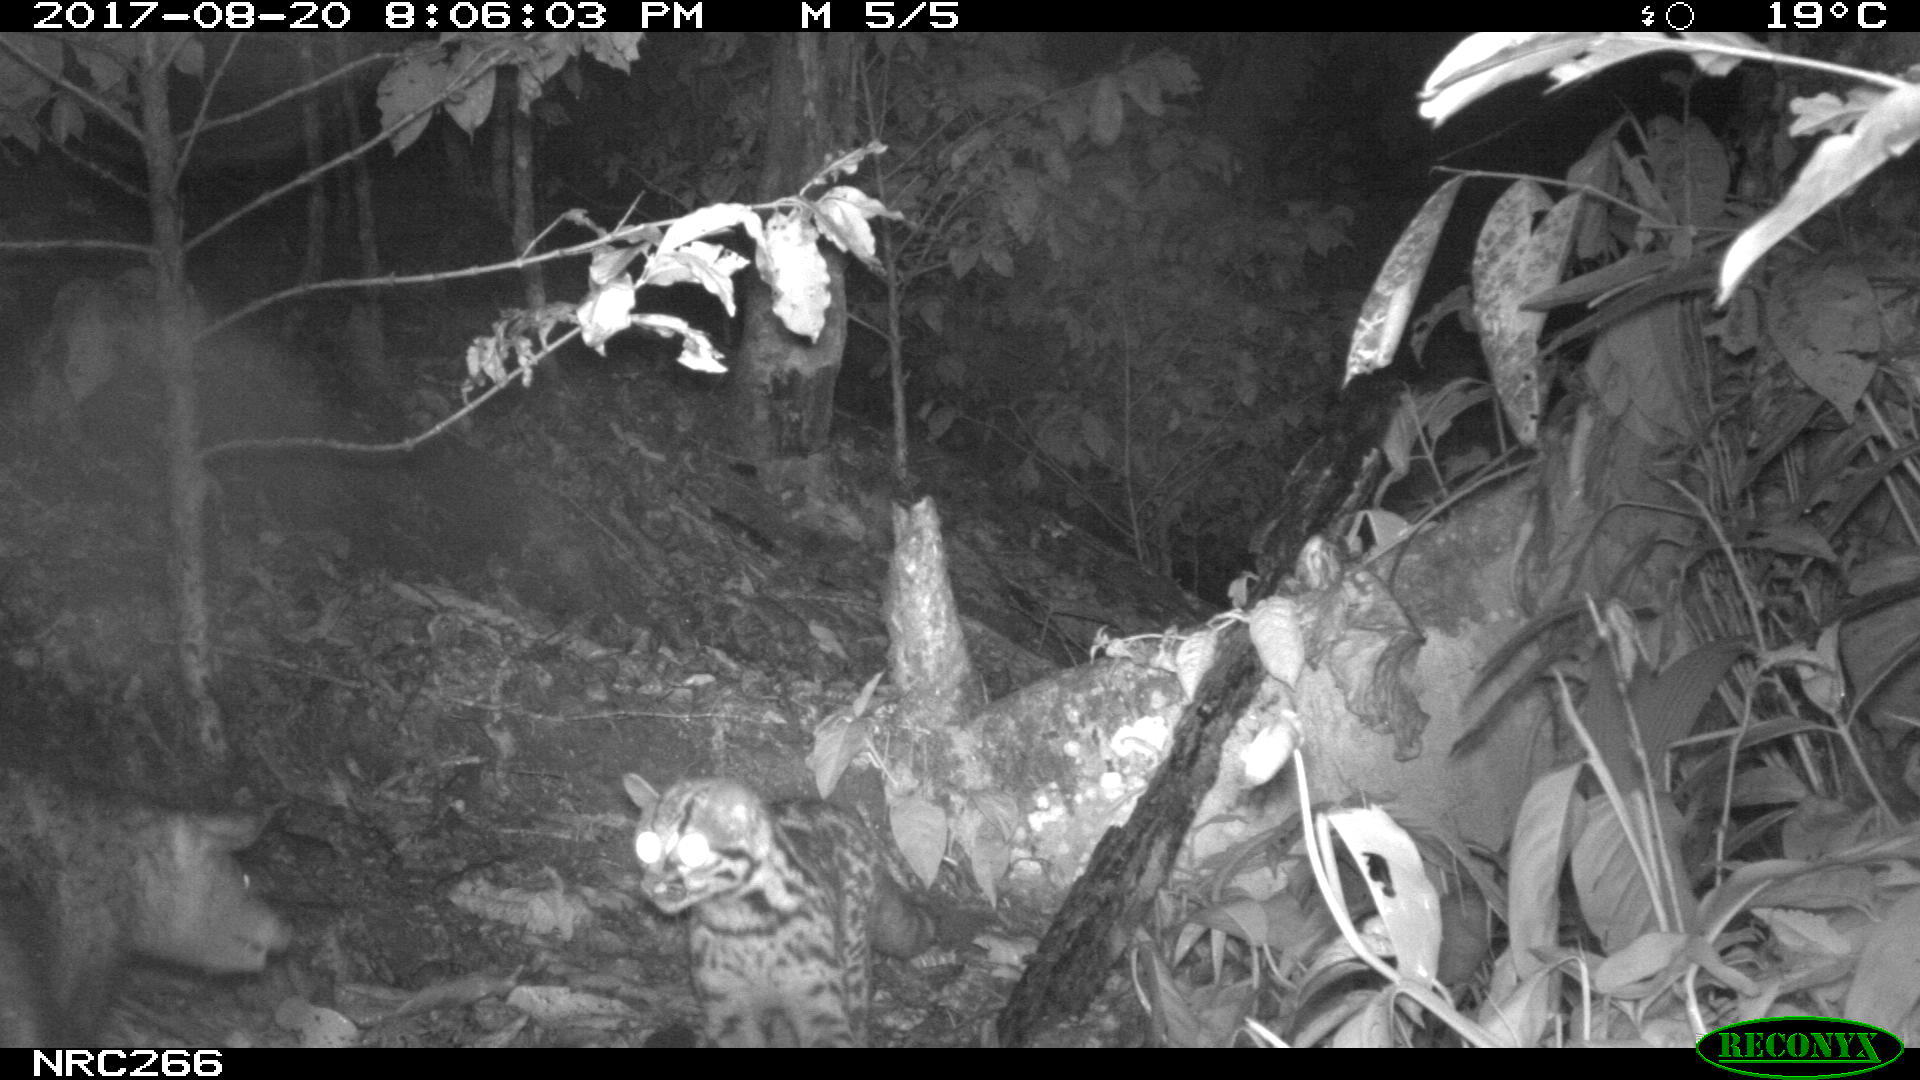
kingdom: Animalia
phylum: Chordata
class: Mammalia
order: Carnivora
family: Felidae
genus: Leopardus
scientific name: Leopardus tigrinus
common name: Oncilla
